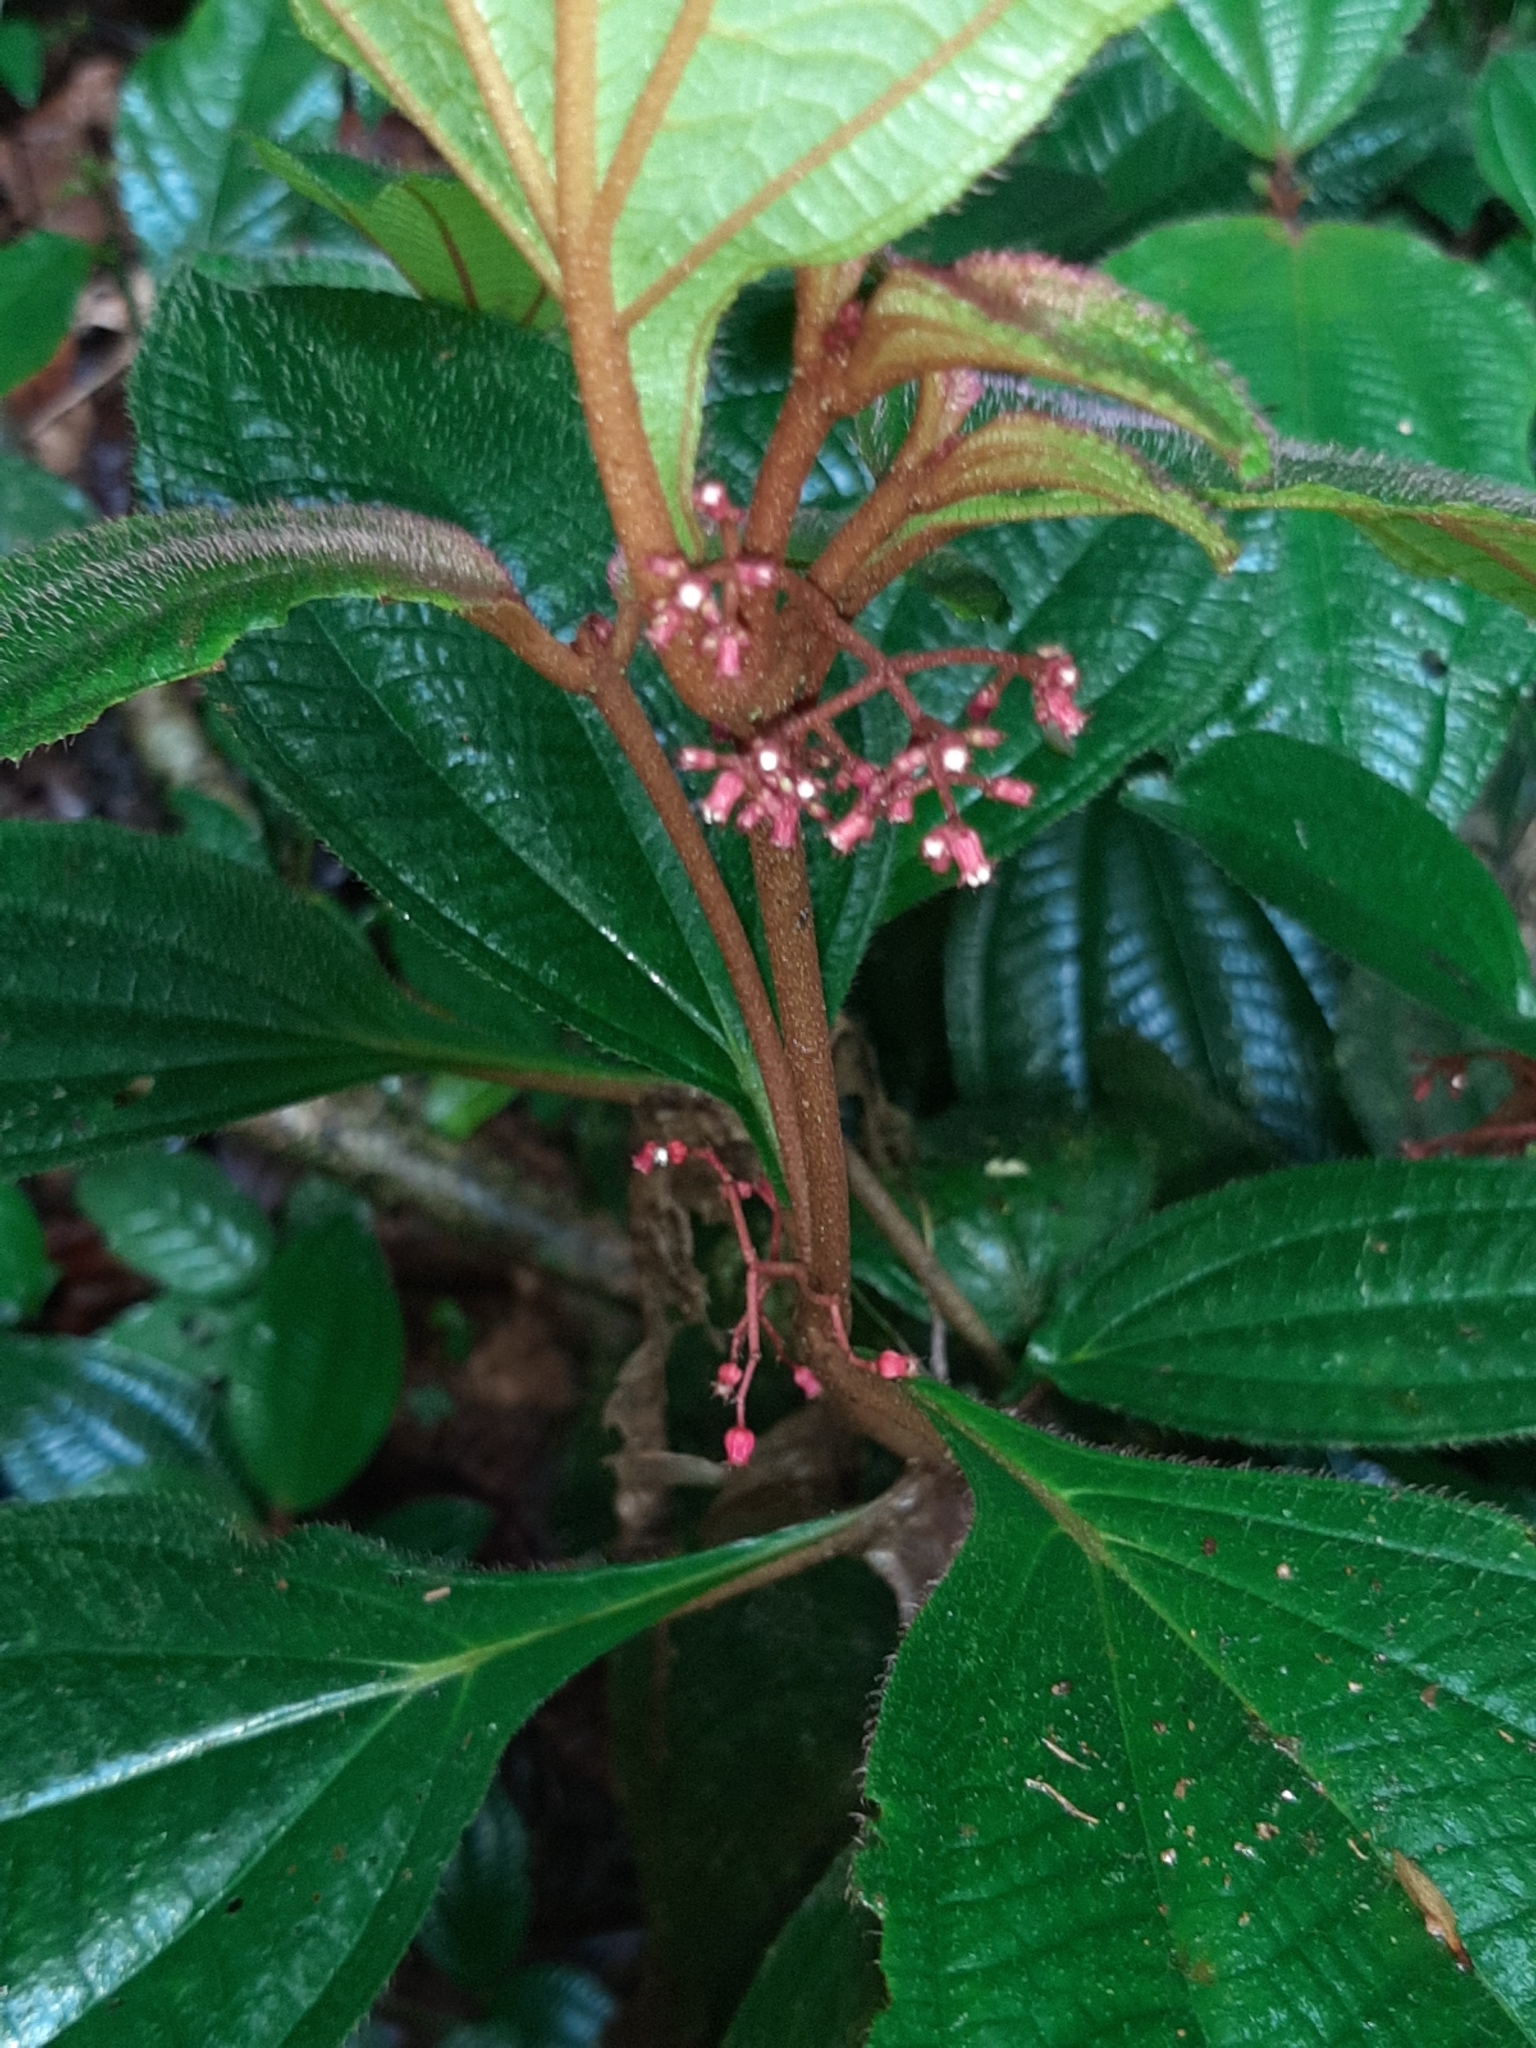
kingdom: Plantae
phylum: Tracheophyta
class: Magnoliopsida
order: Myrtales
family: Melastomataceae
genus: Miconia
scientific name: Miconia quinquenervia
